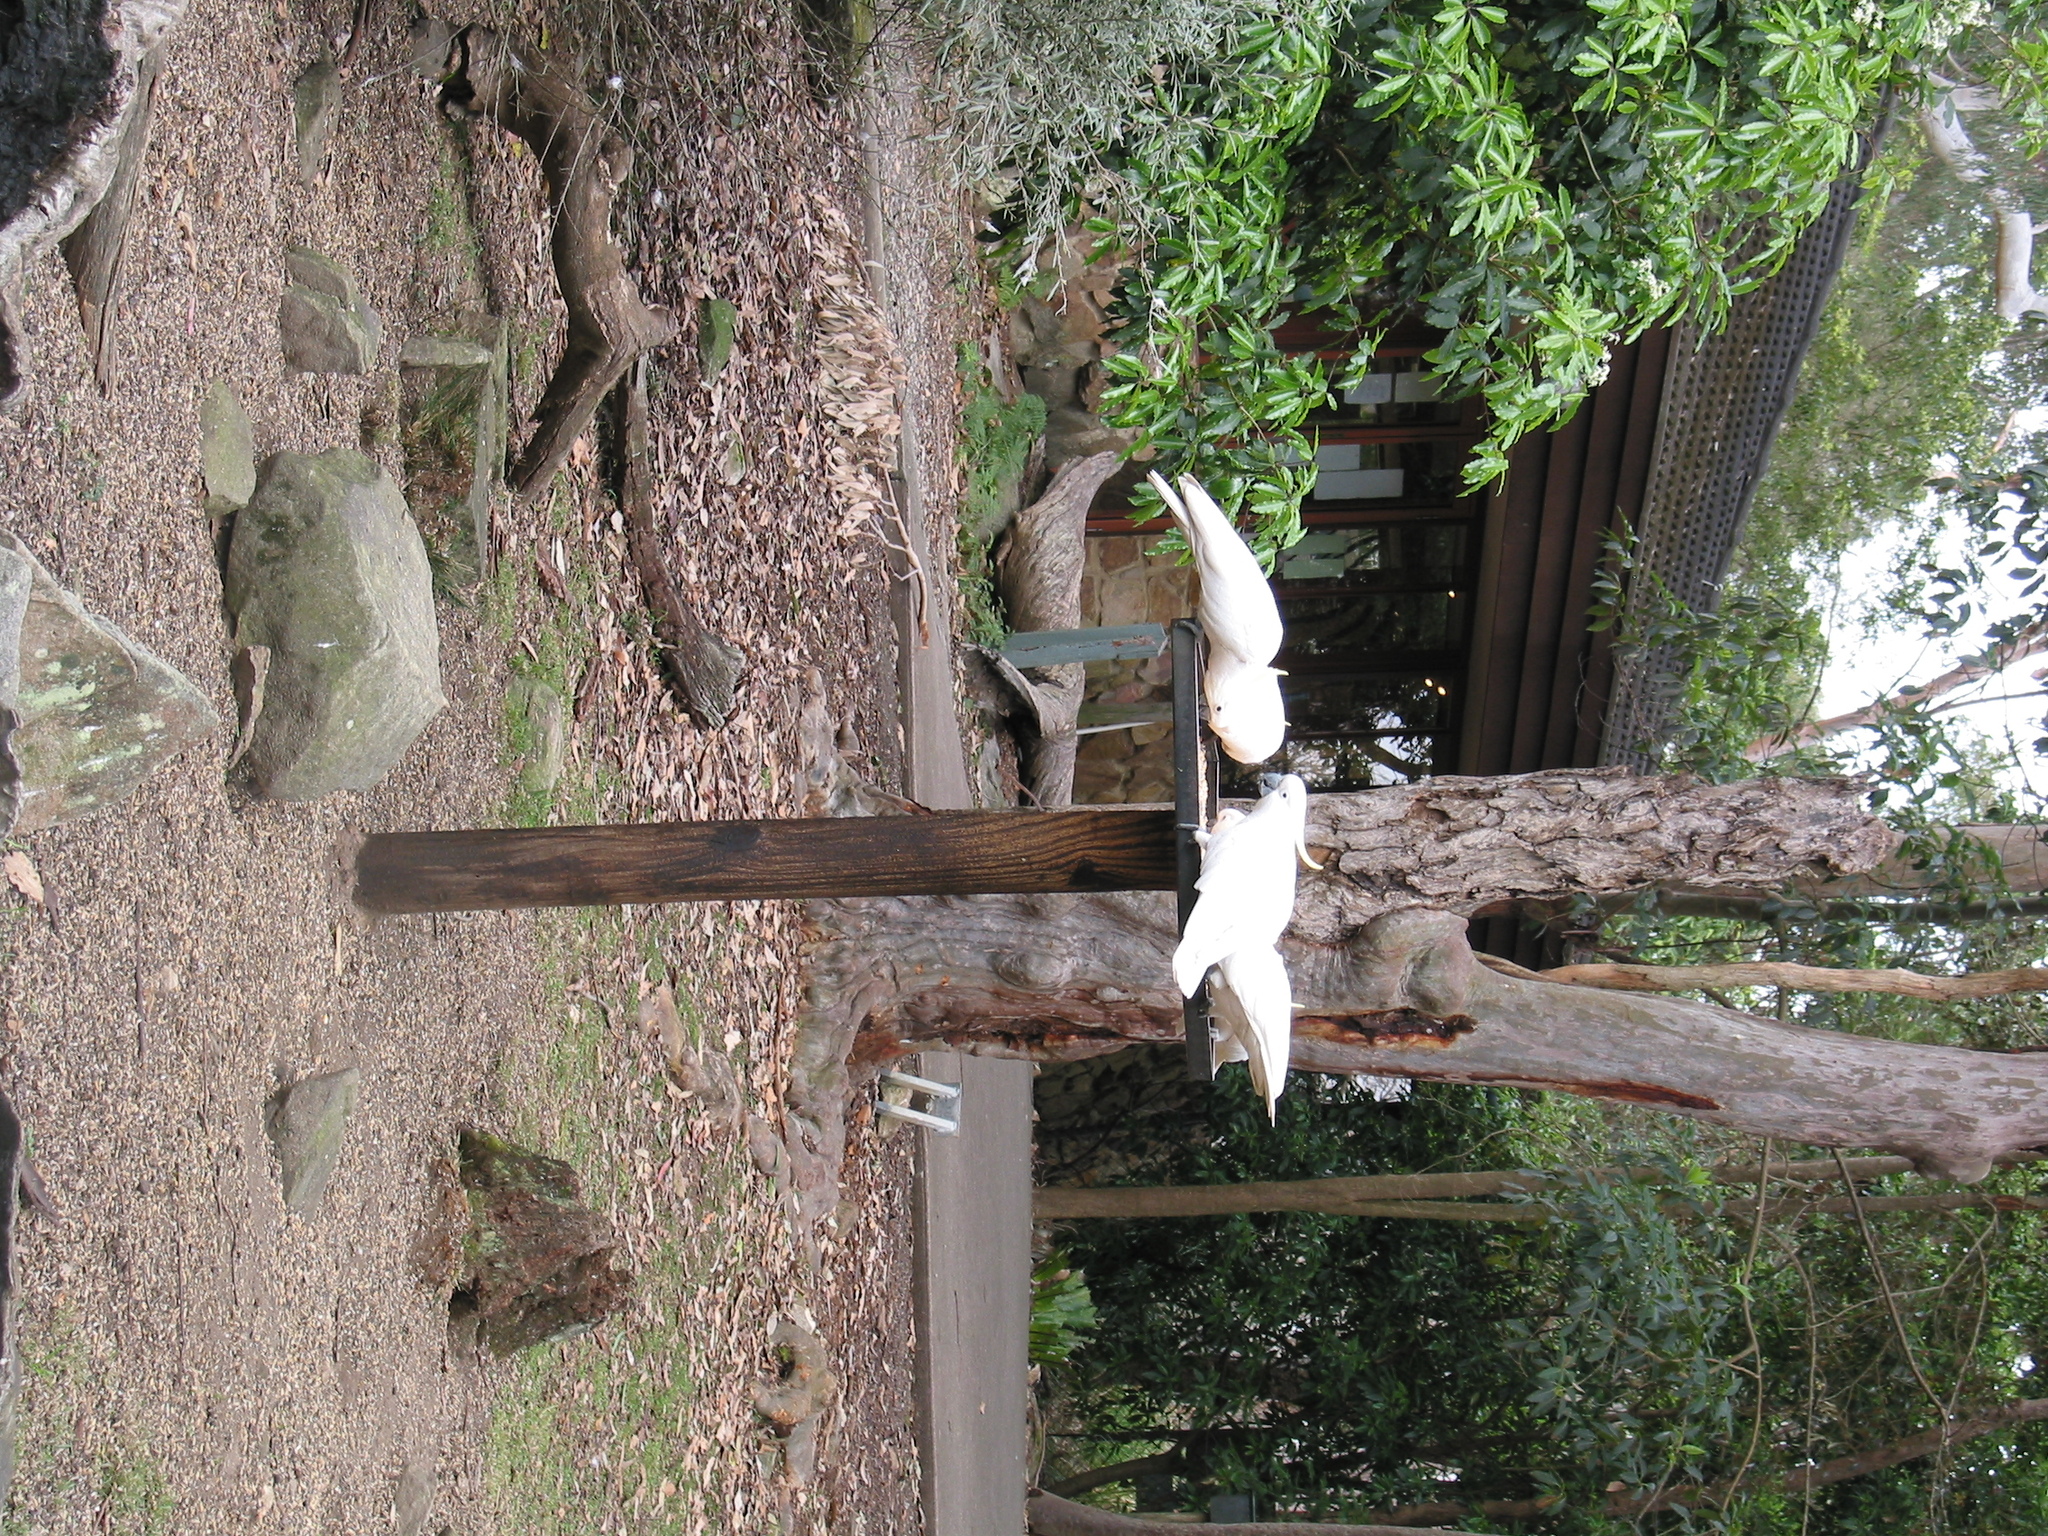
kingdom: Animalia
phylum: Chordata
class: Aves
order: Psittaciformes
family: Psittacidae
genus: Cacatua
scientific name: Cacatua galerita
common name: Sulphur-crested cockatoo
